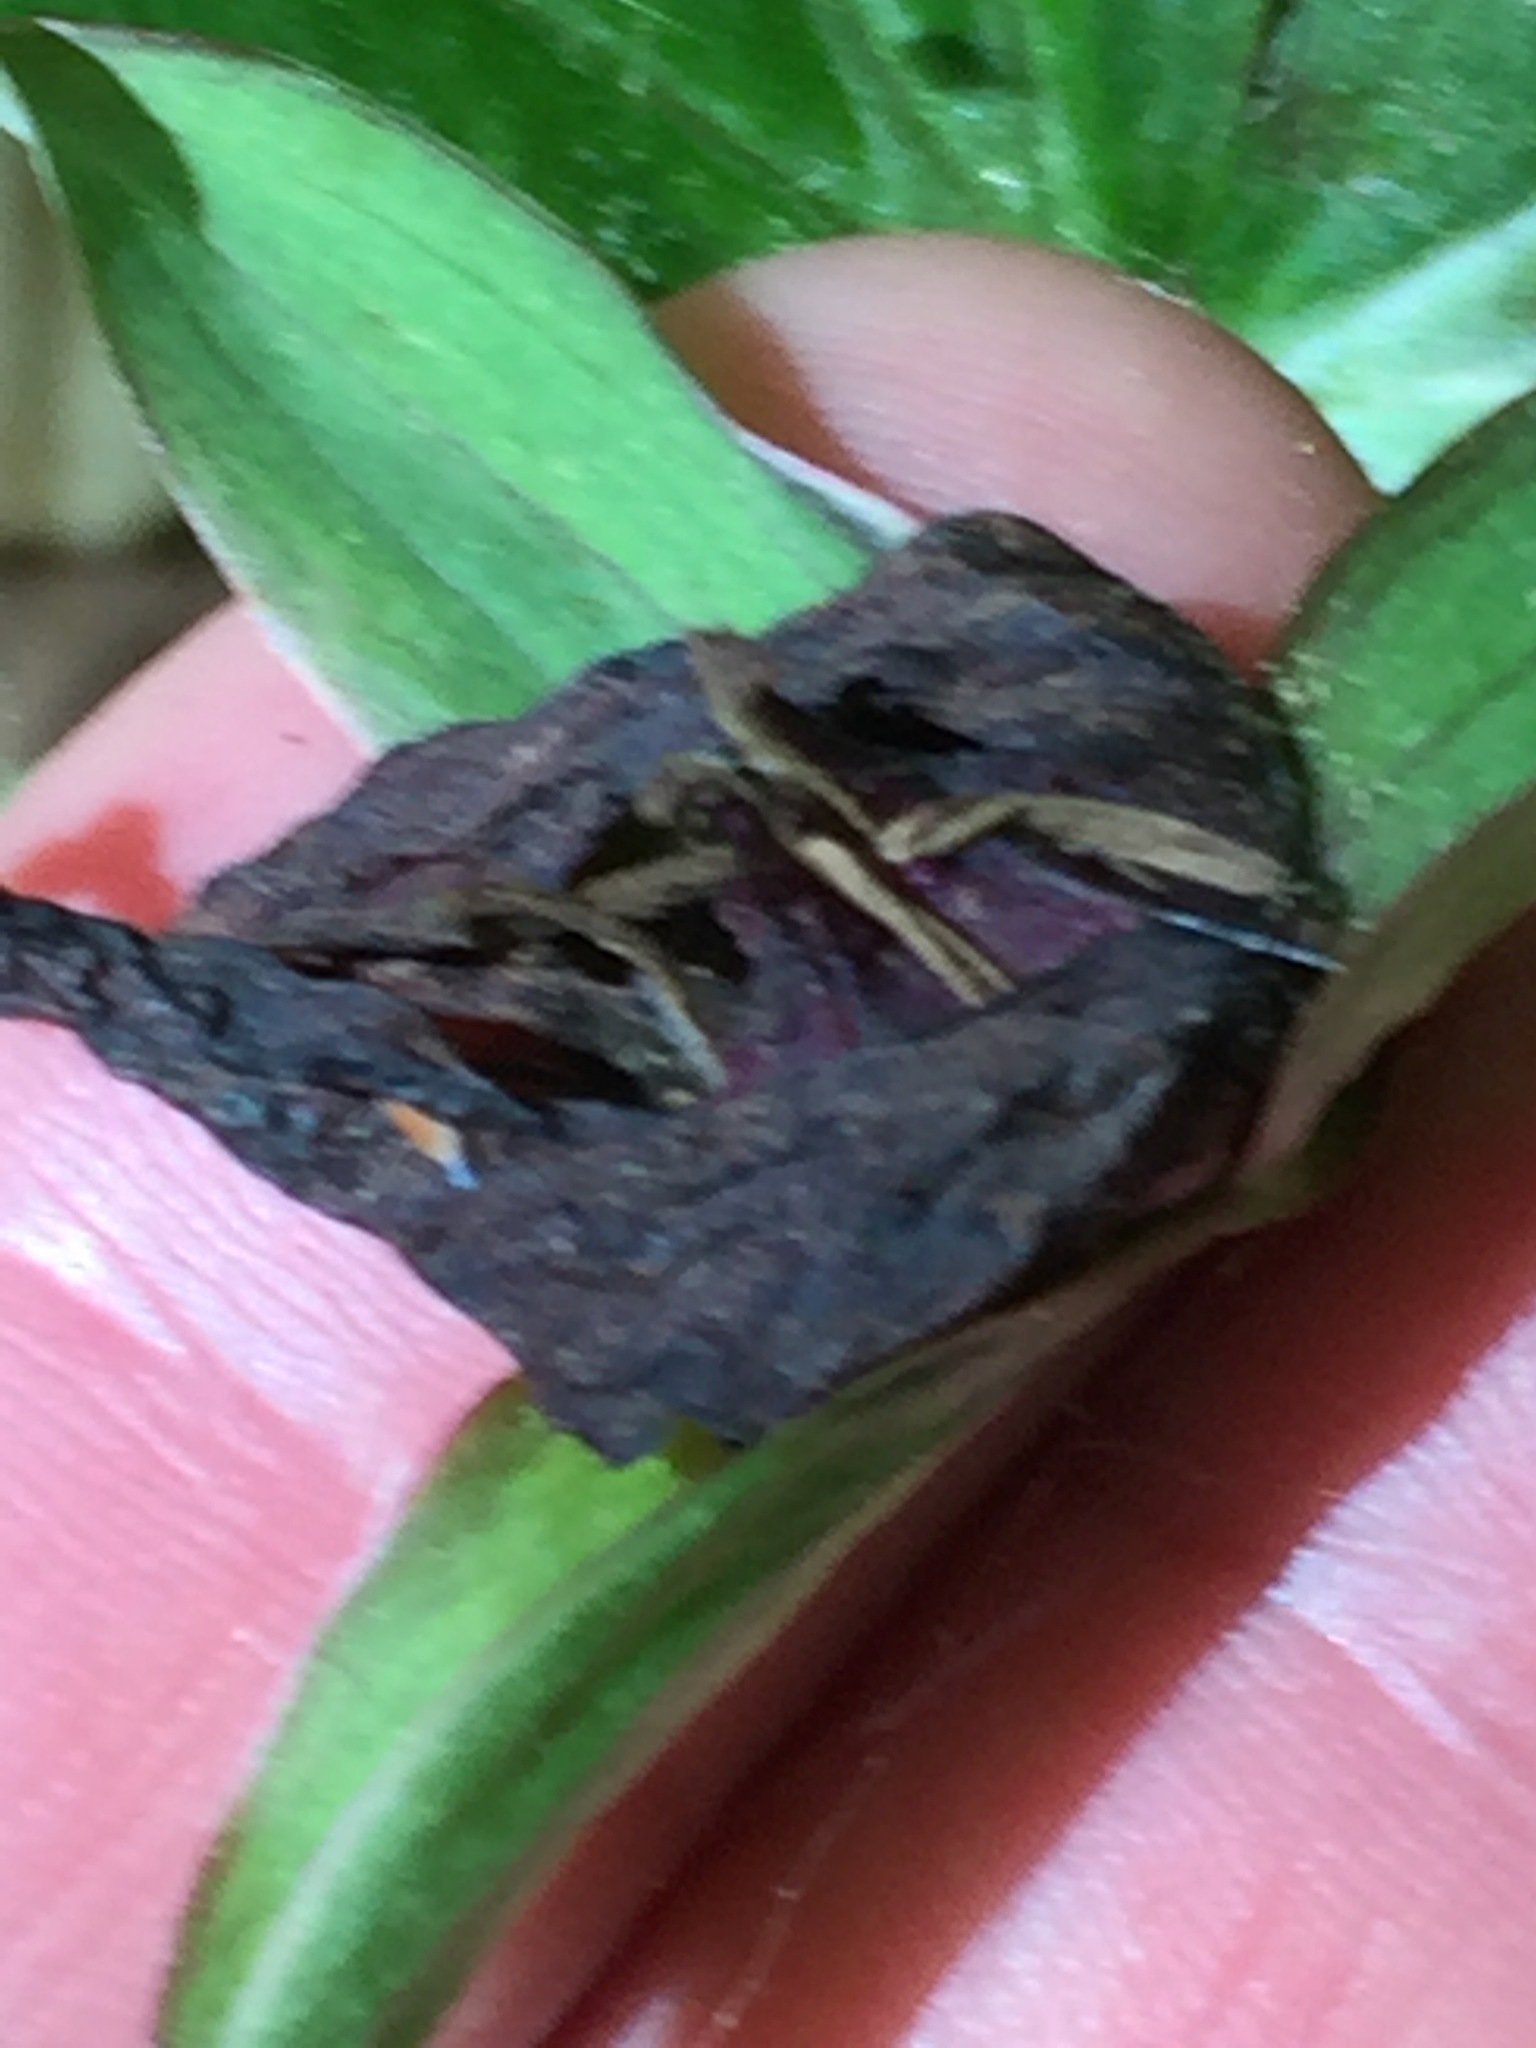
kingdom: Plantae
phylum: Tracheophyta
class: Liliopsida
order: Liliales
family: Melanthiaceae
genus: Trillium
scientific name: Trillium erectum
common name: Purple trillium
